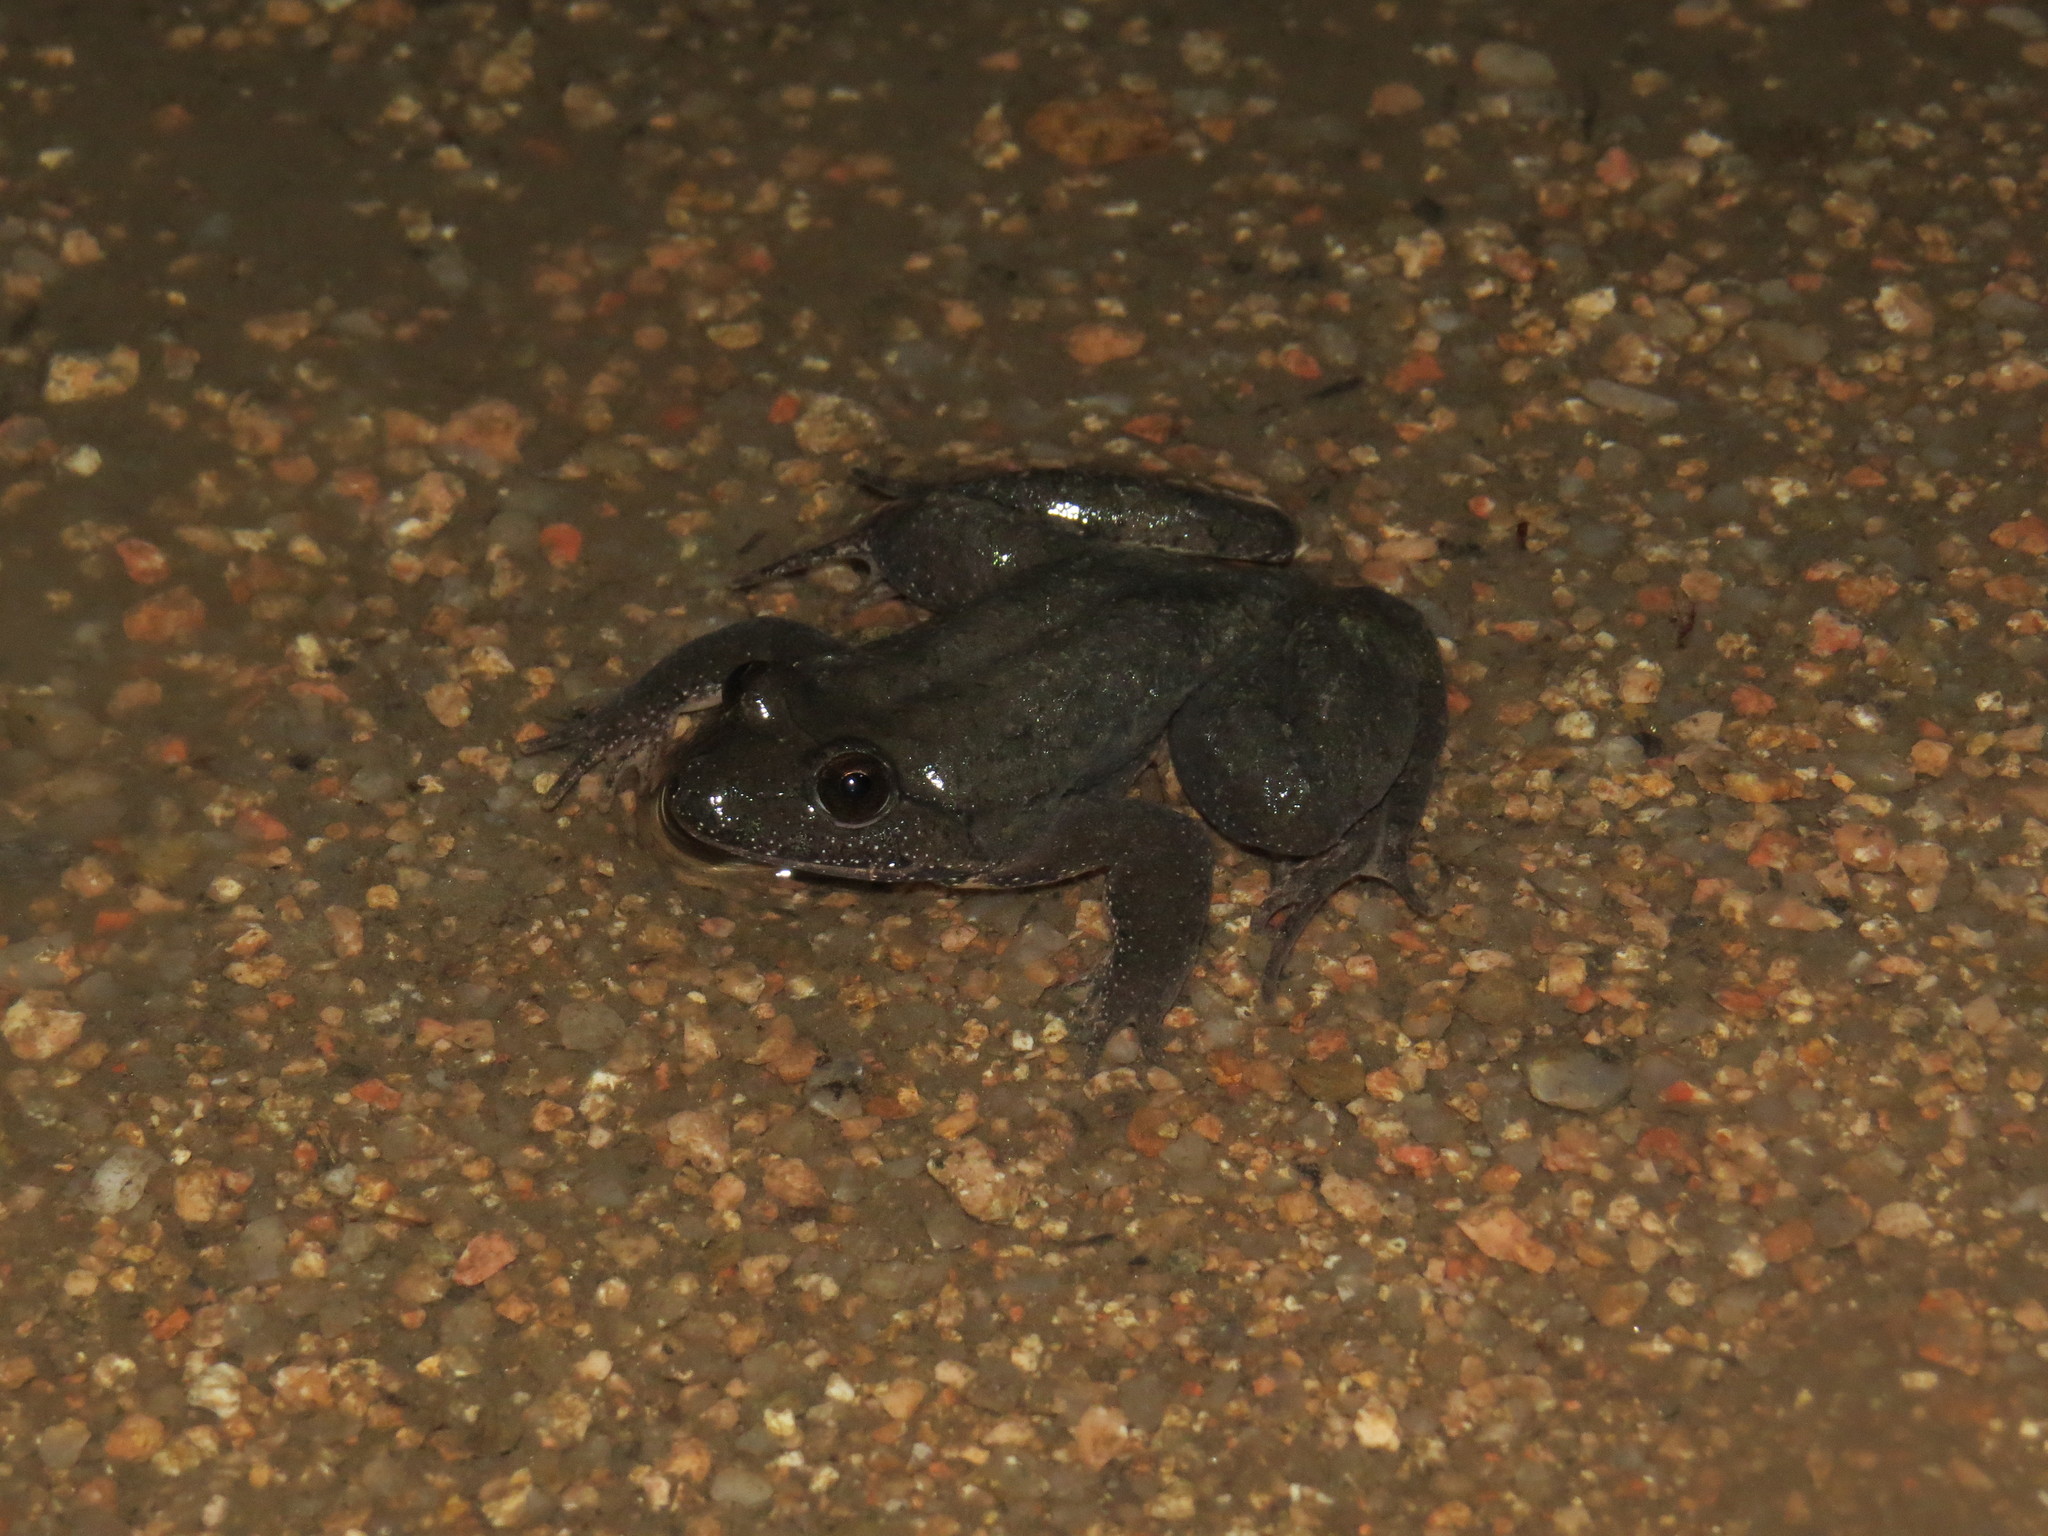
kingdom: Animalia
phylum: Chordata
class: Amphibia
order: Anura
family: Alytidae
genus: Discoglossus
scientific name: Discoglossus montalentii
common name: Corsica painted frog
